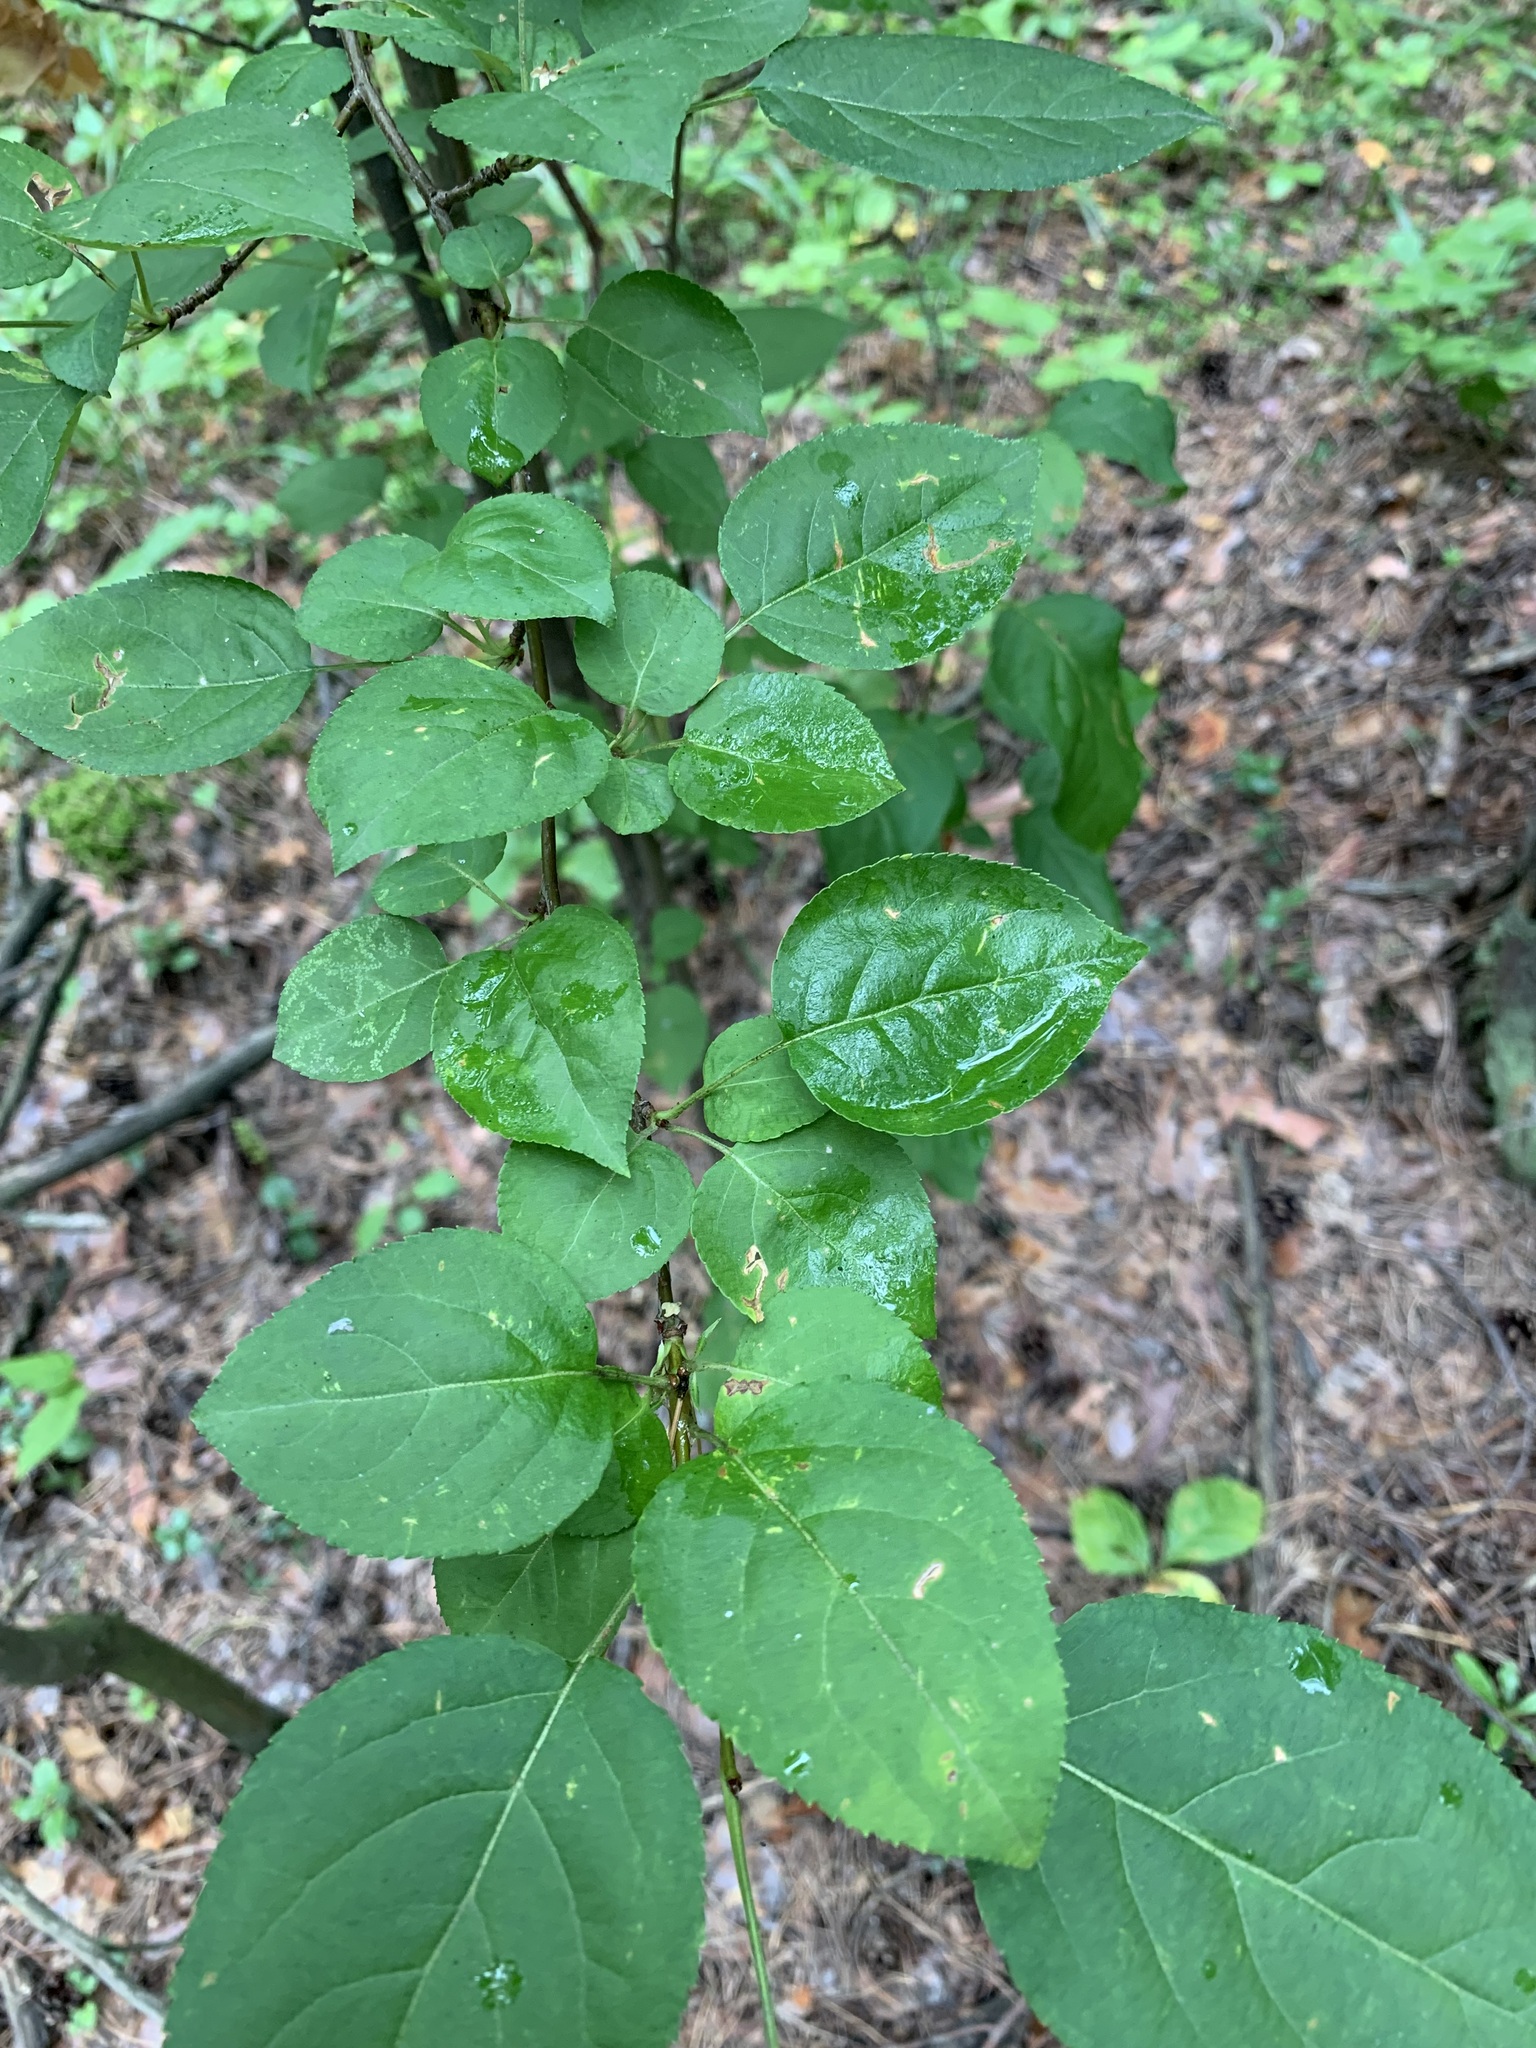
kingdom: Plantae
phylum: Tracheophyta
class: Magnoliopsida
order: Rosales
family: Rosaceae
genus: Malus
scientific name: Malus baccata
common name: Siberian crab
